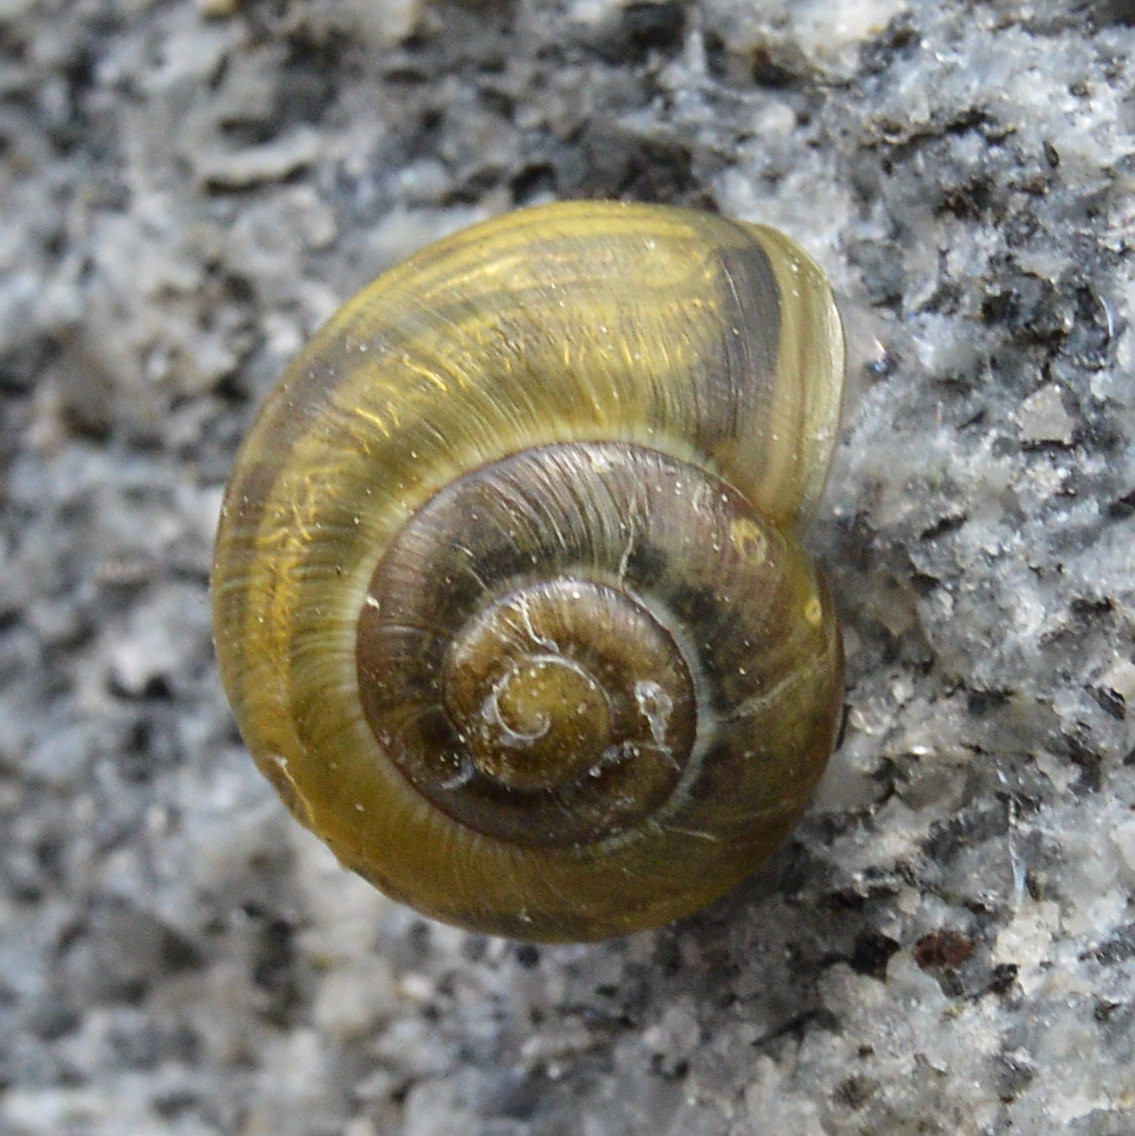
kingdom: Animalia
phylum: Mollusca
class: Gastropoda
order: Stylommatophora
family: Helicidae
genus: Cepaea
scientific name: Cepaea
